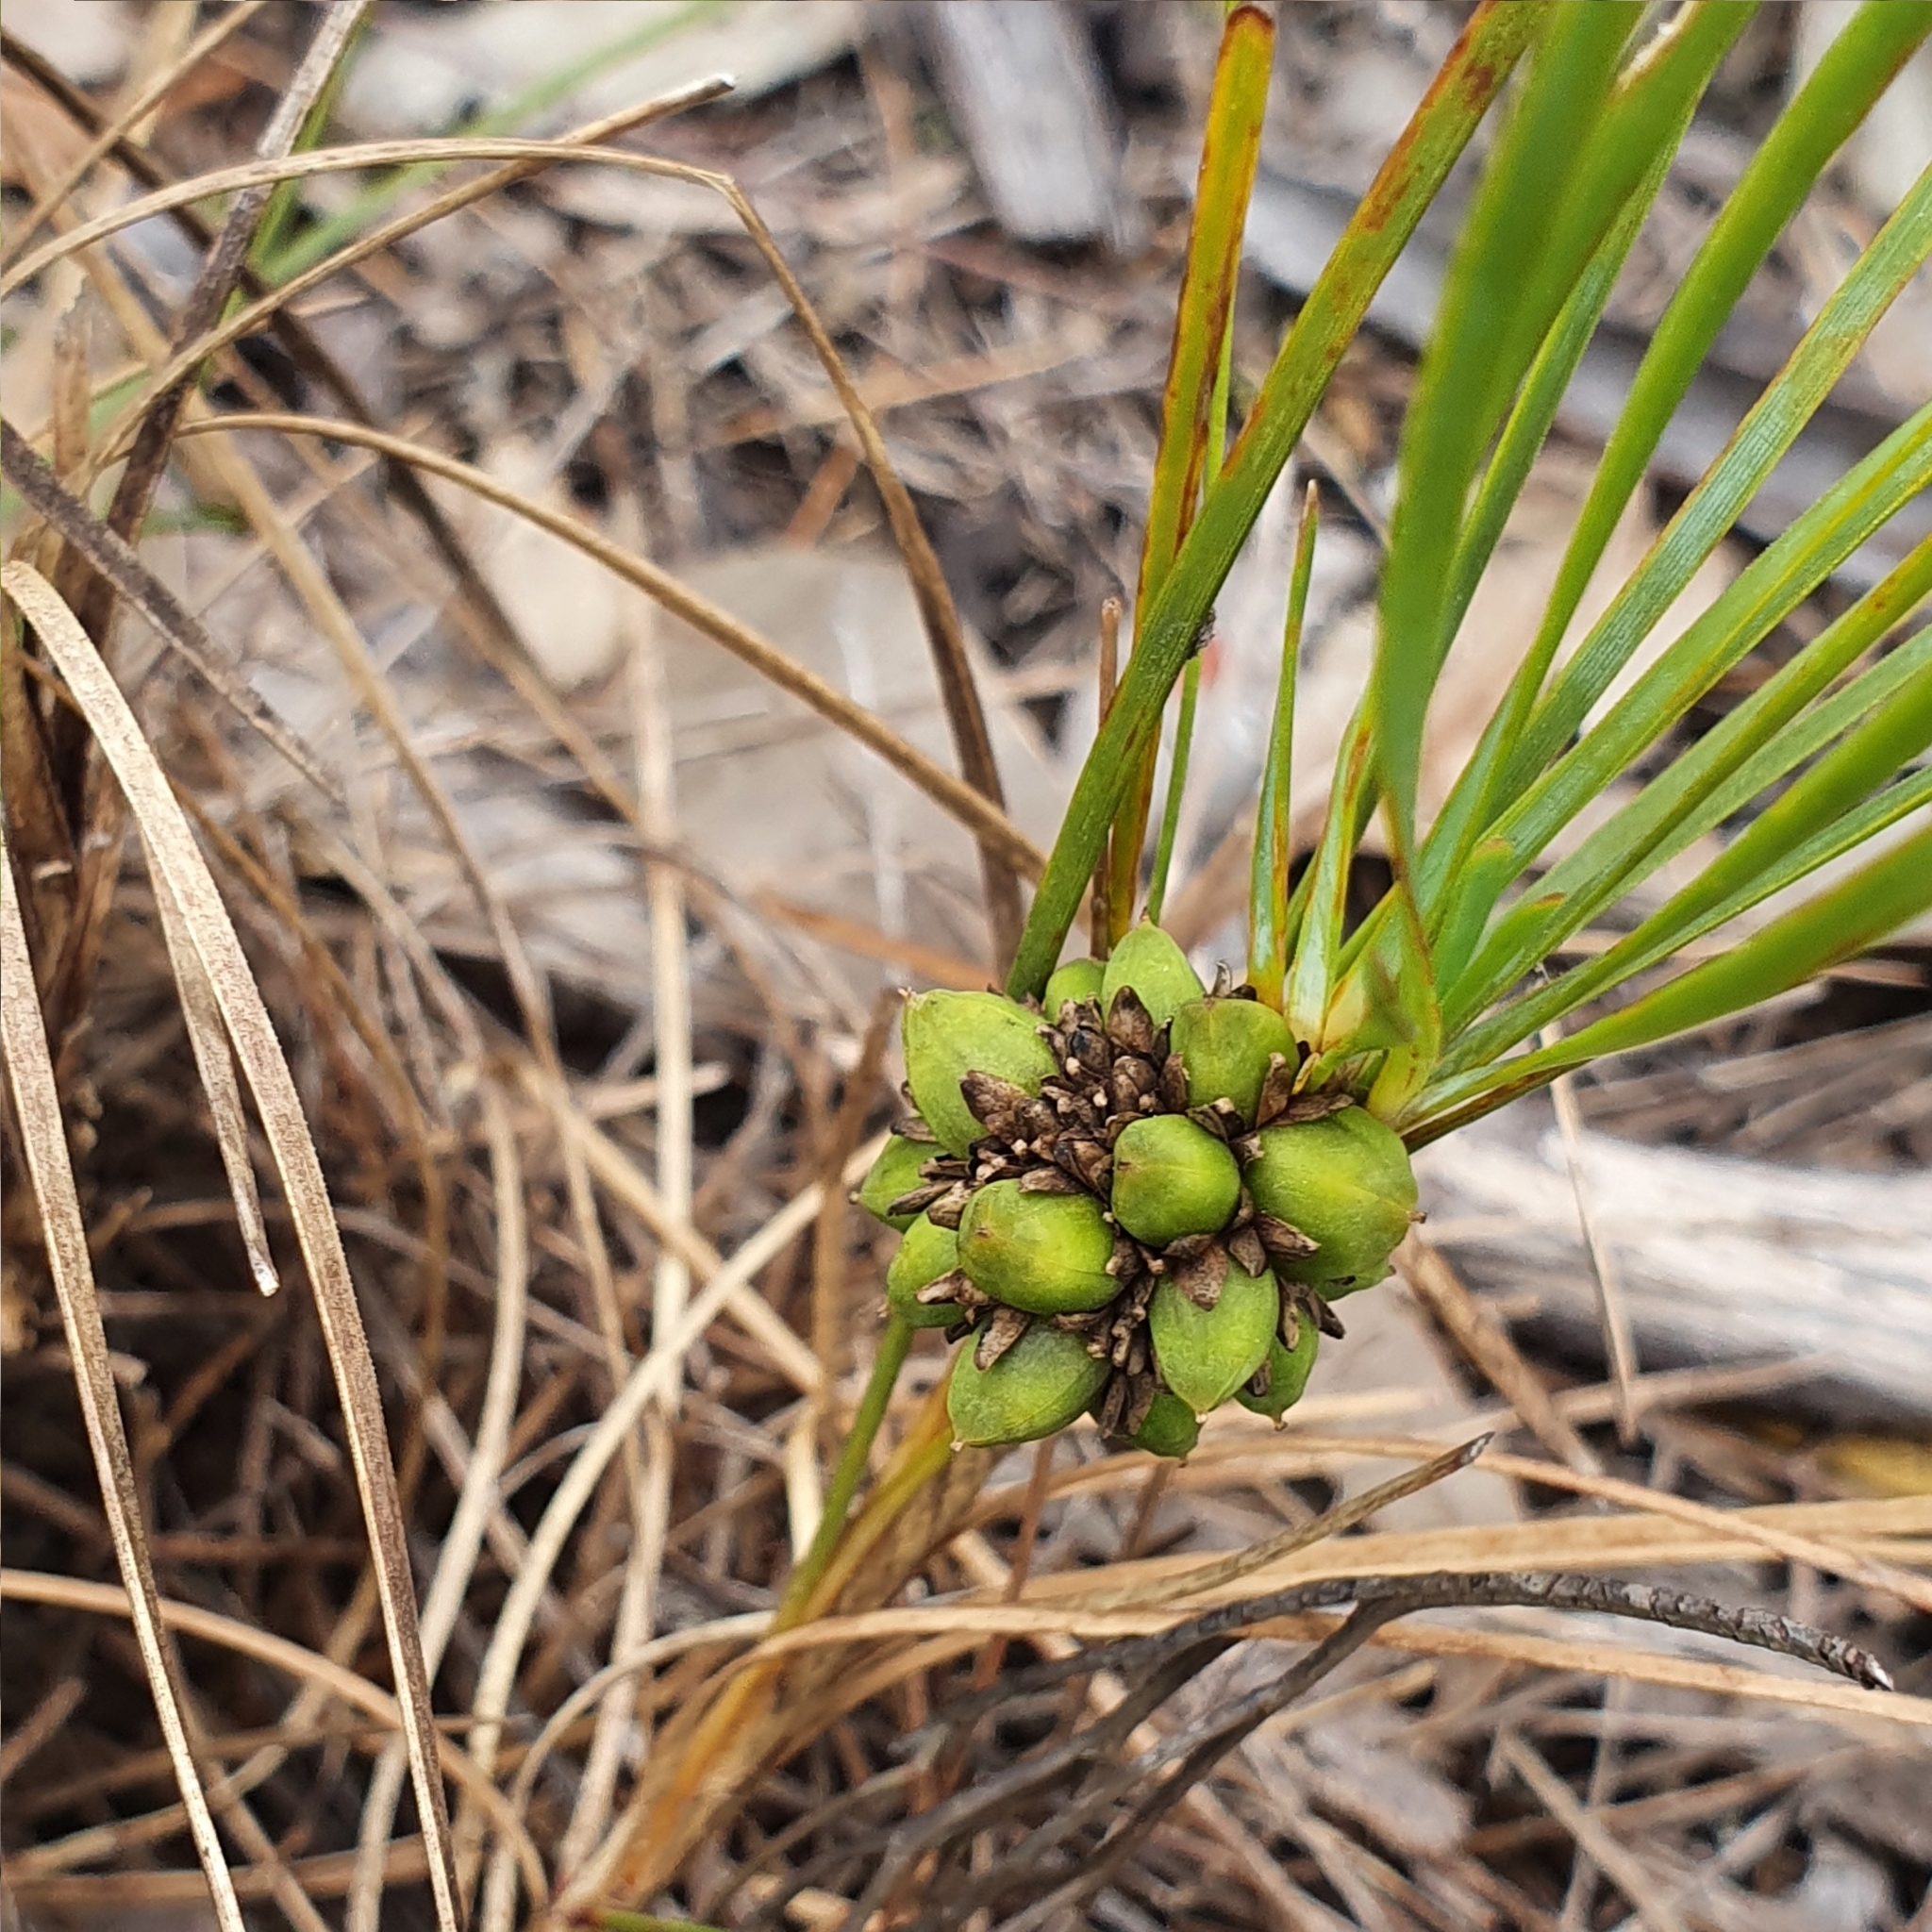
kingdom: Plantae
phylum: Tracheophyta
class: Liliopsida
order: Asparagales
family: Asparagaceae
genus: Lomandra
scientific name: Lomandra glauca
